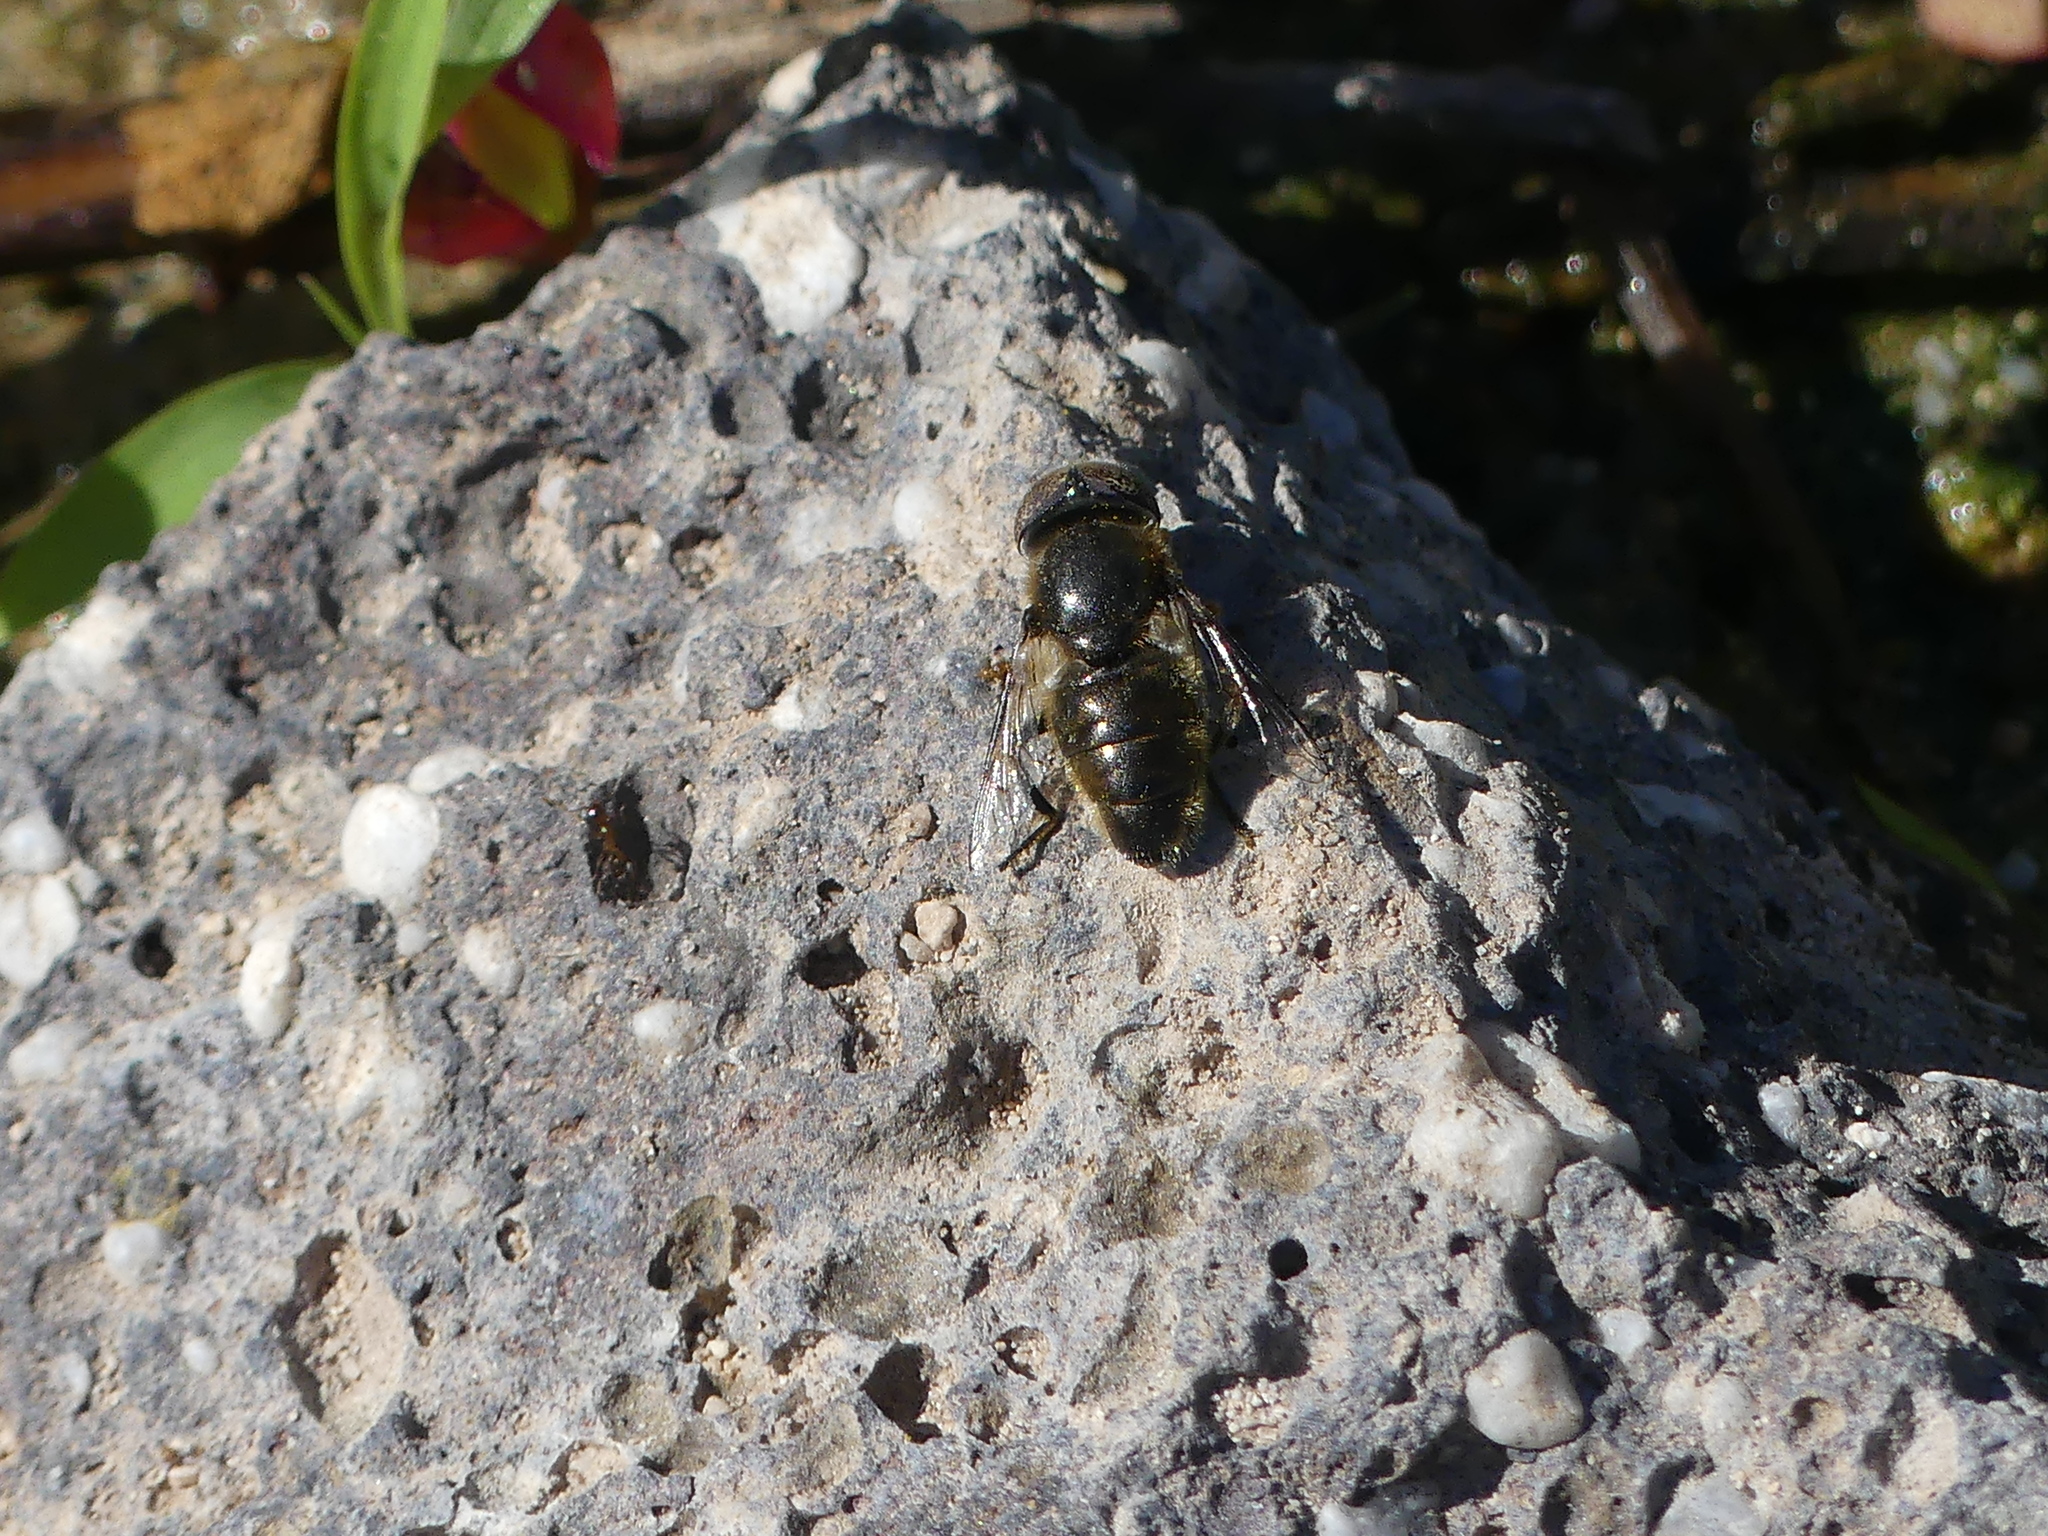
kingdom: Animalia
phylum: Arthropoda
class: Insecta
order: Diptera
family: Syrphidae
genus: Eristalinus
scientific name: Eristalinus aeneus
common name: Syrphid fly
